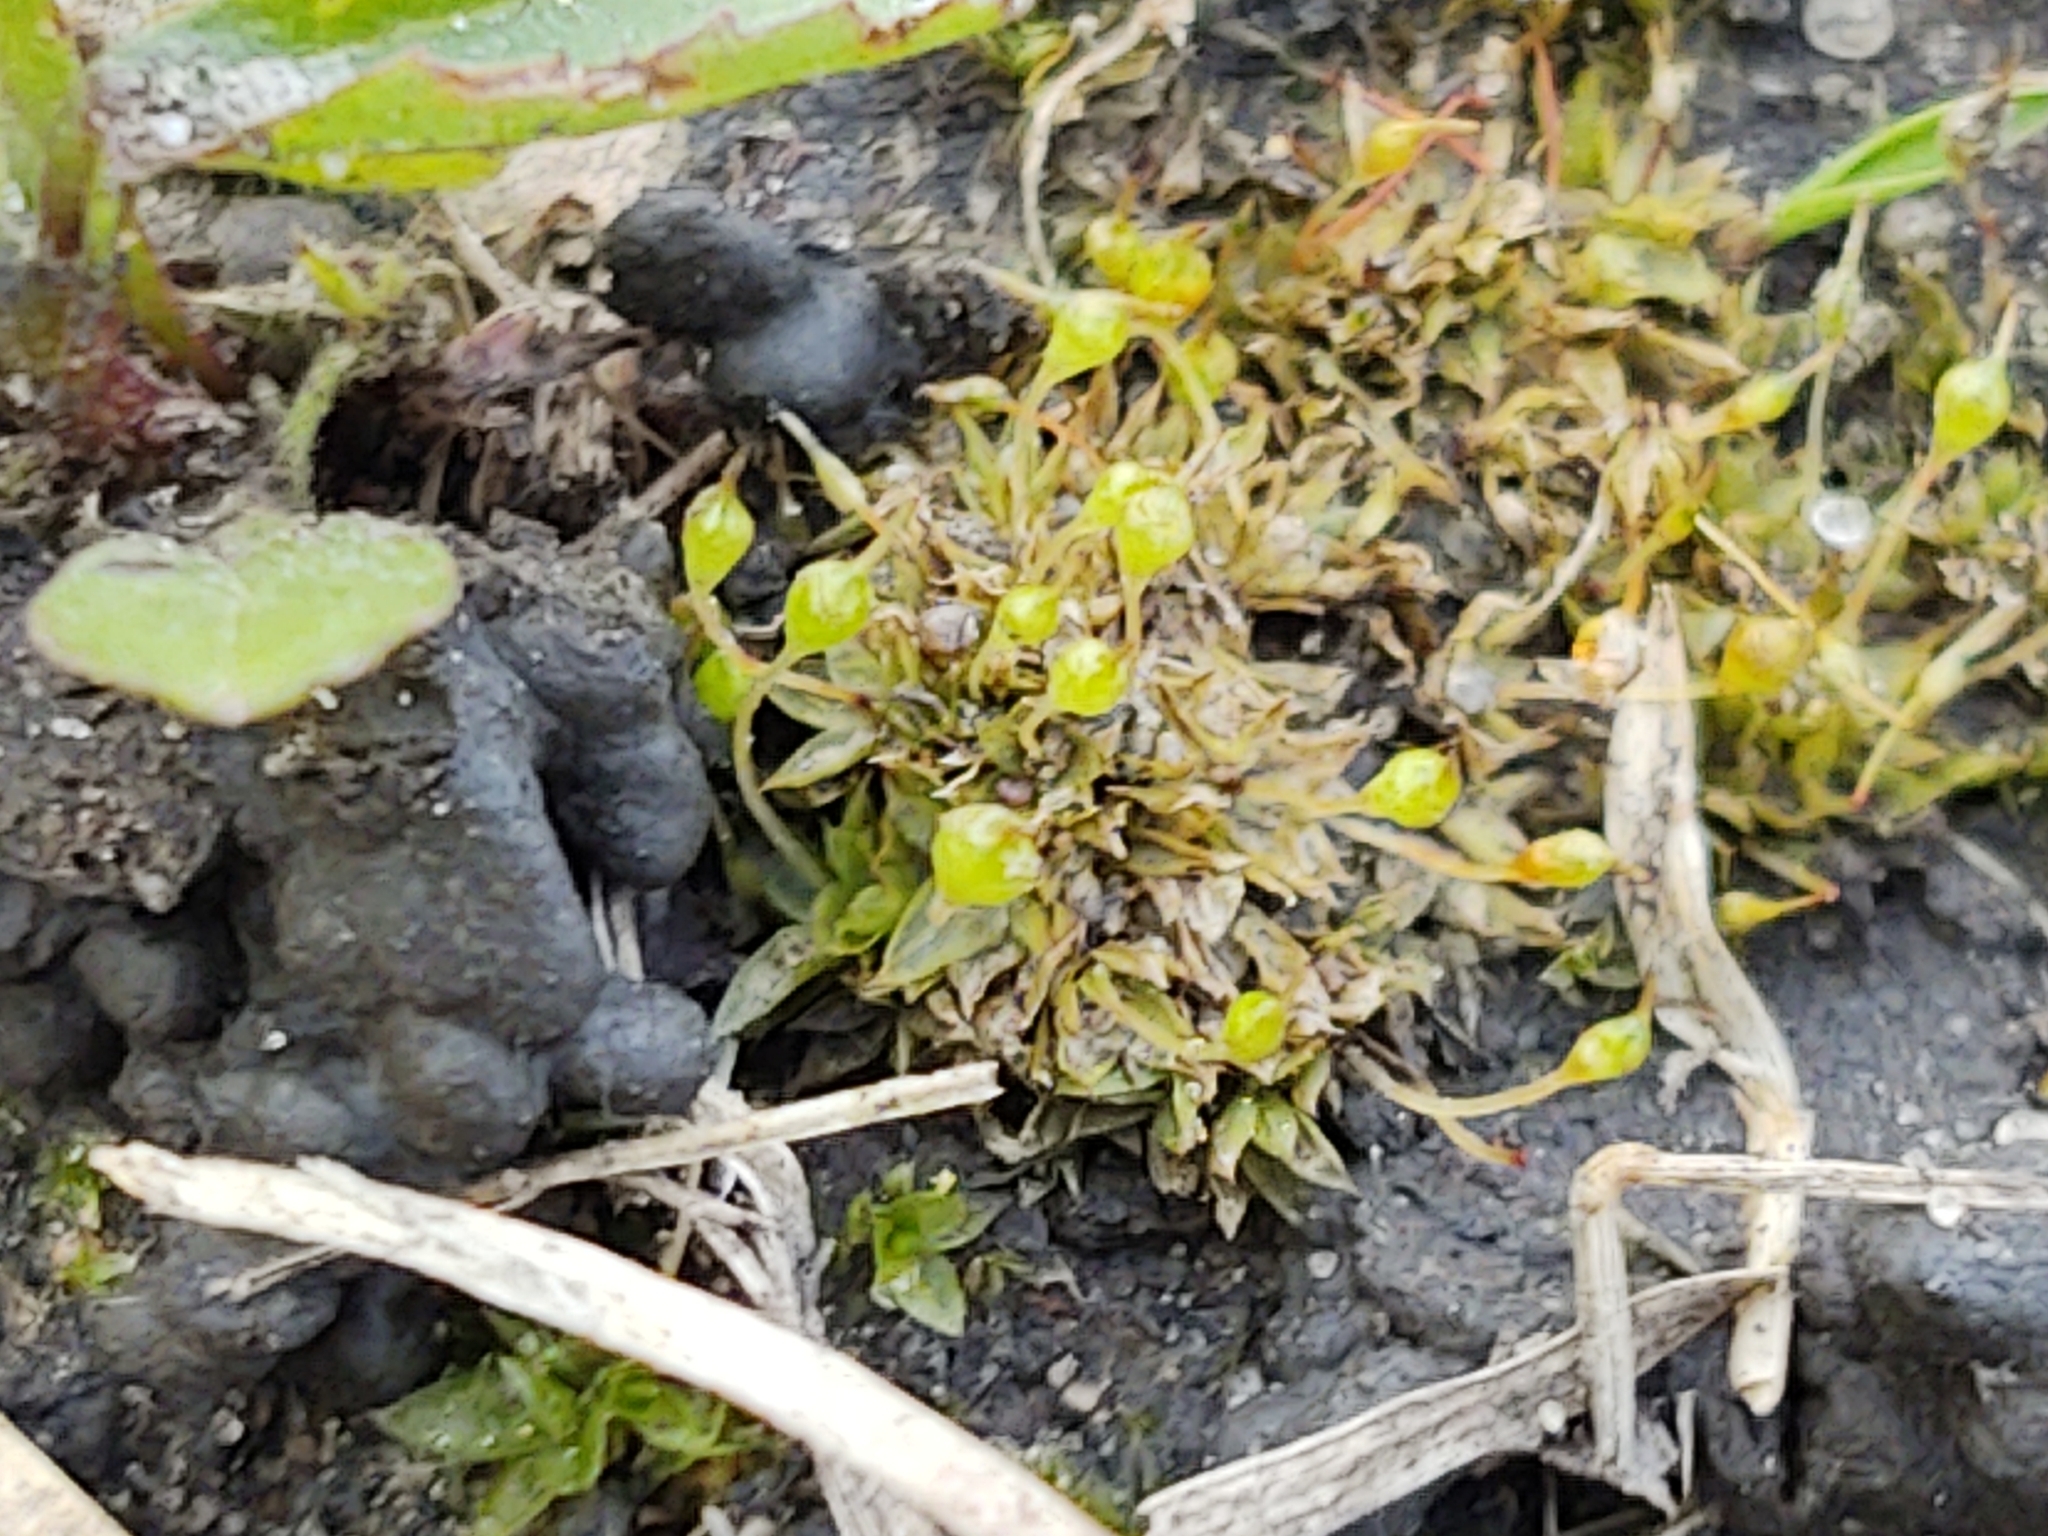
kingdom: Plantae
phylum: Bryophyta
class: Bryopsida
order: Funariales
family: Funariaceae
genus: Physcomitrium
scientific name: Physcomitrium pyriforme
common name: Common bladder-moss
